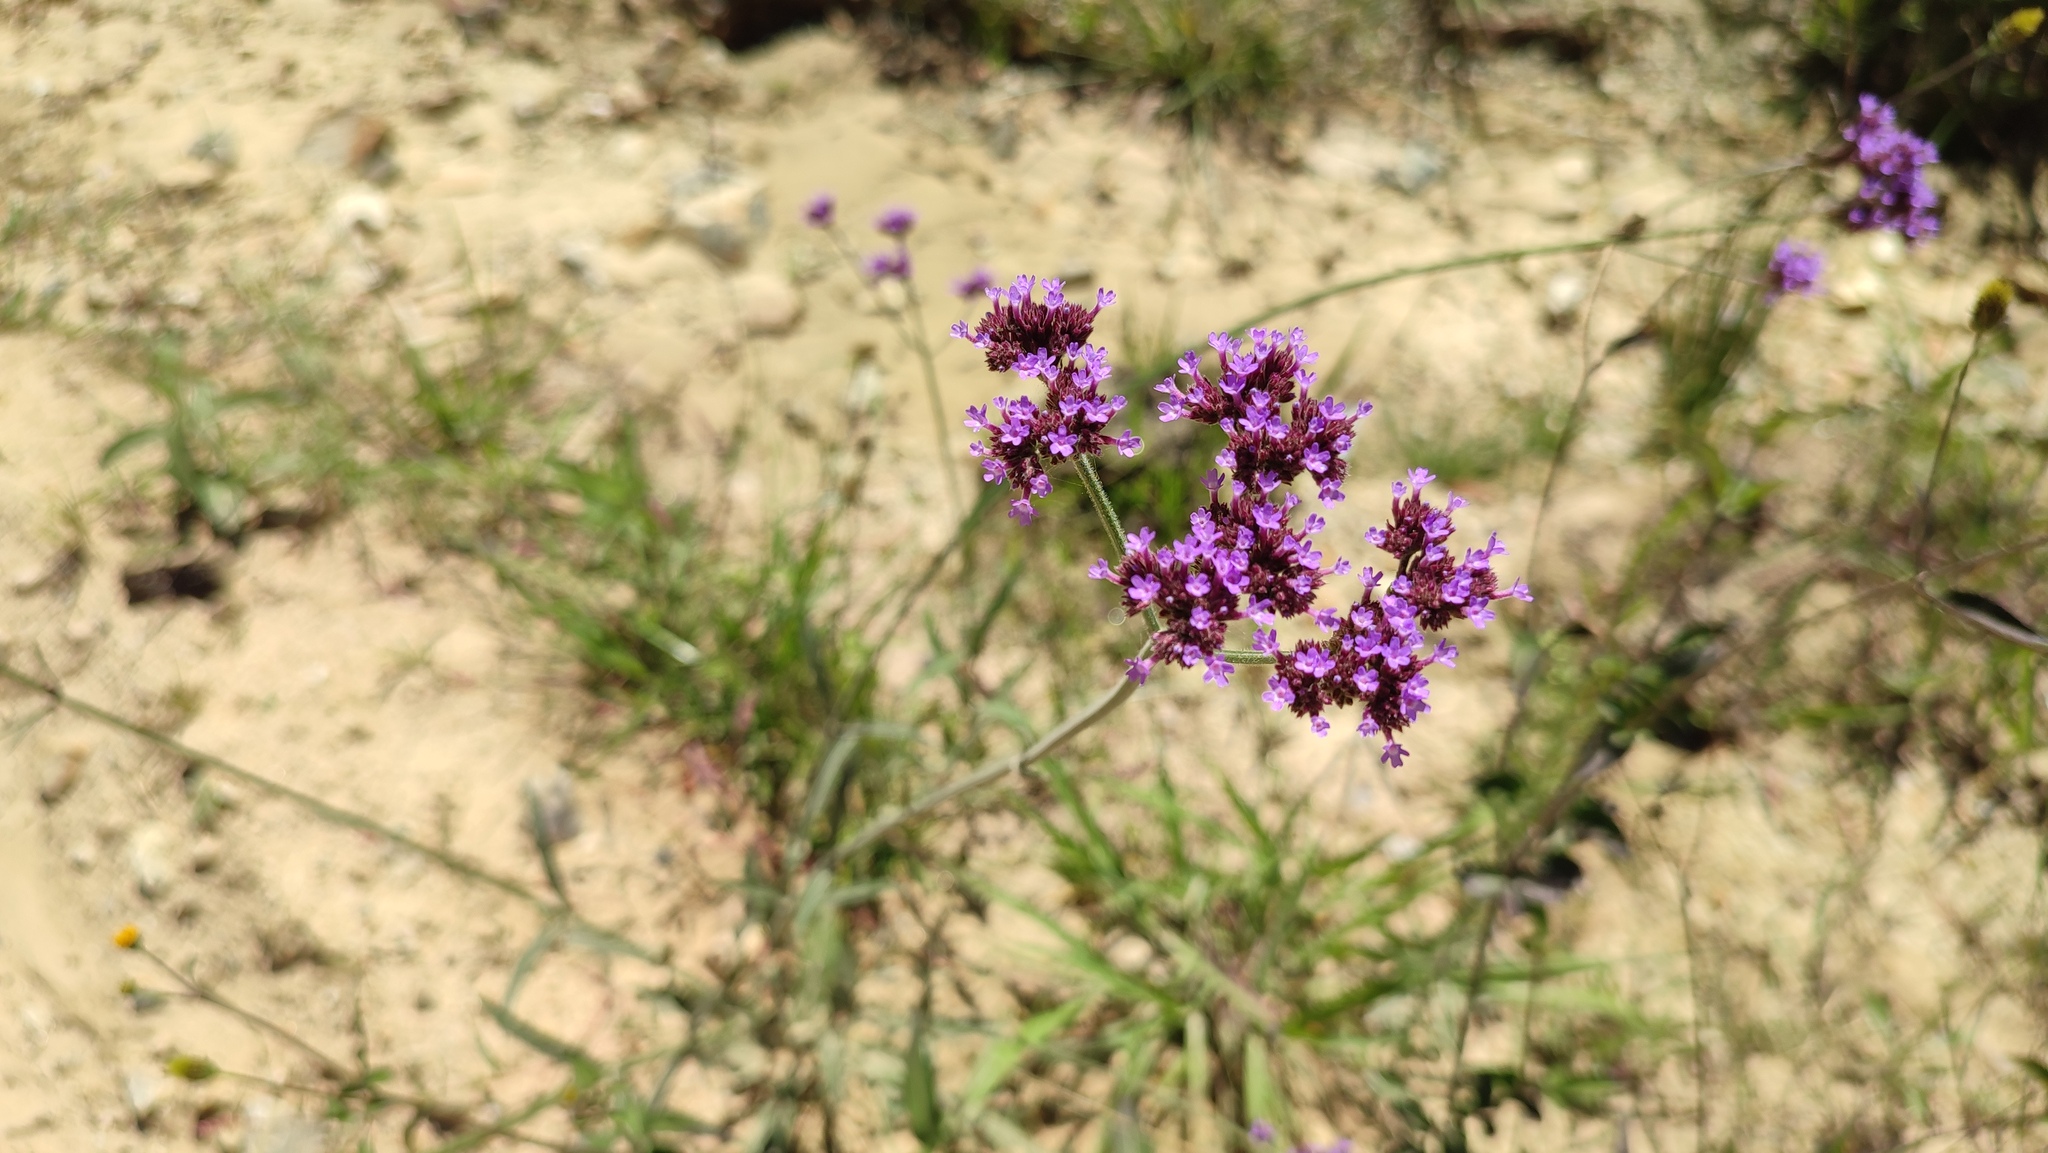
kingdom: Plantae
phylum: Tracheophyta
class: Magnoliopsida
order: Lamiales
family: Verbenaceae
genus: Verbena
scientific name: Verbena bonariensis
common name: Purpletop vervain
